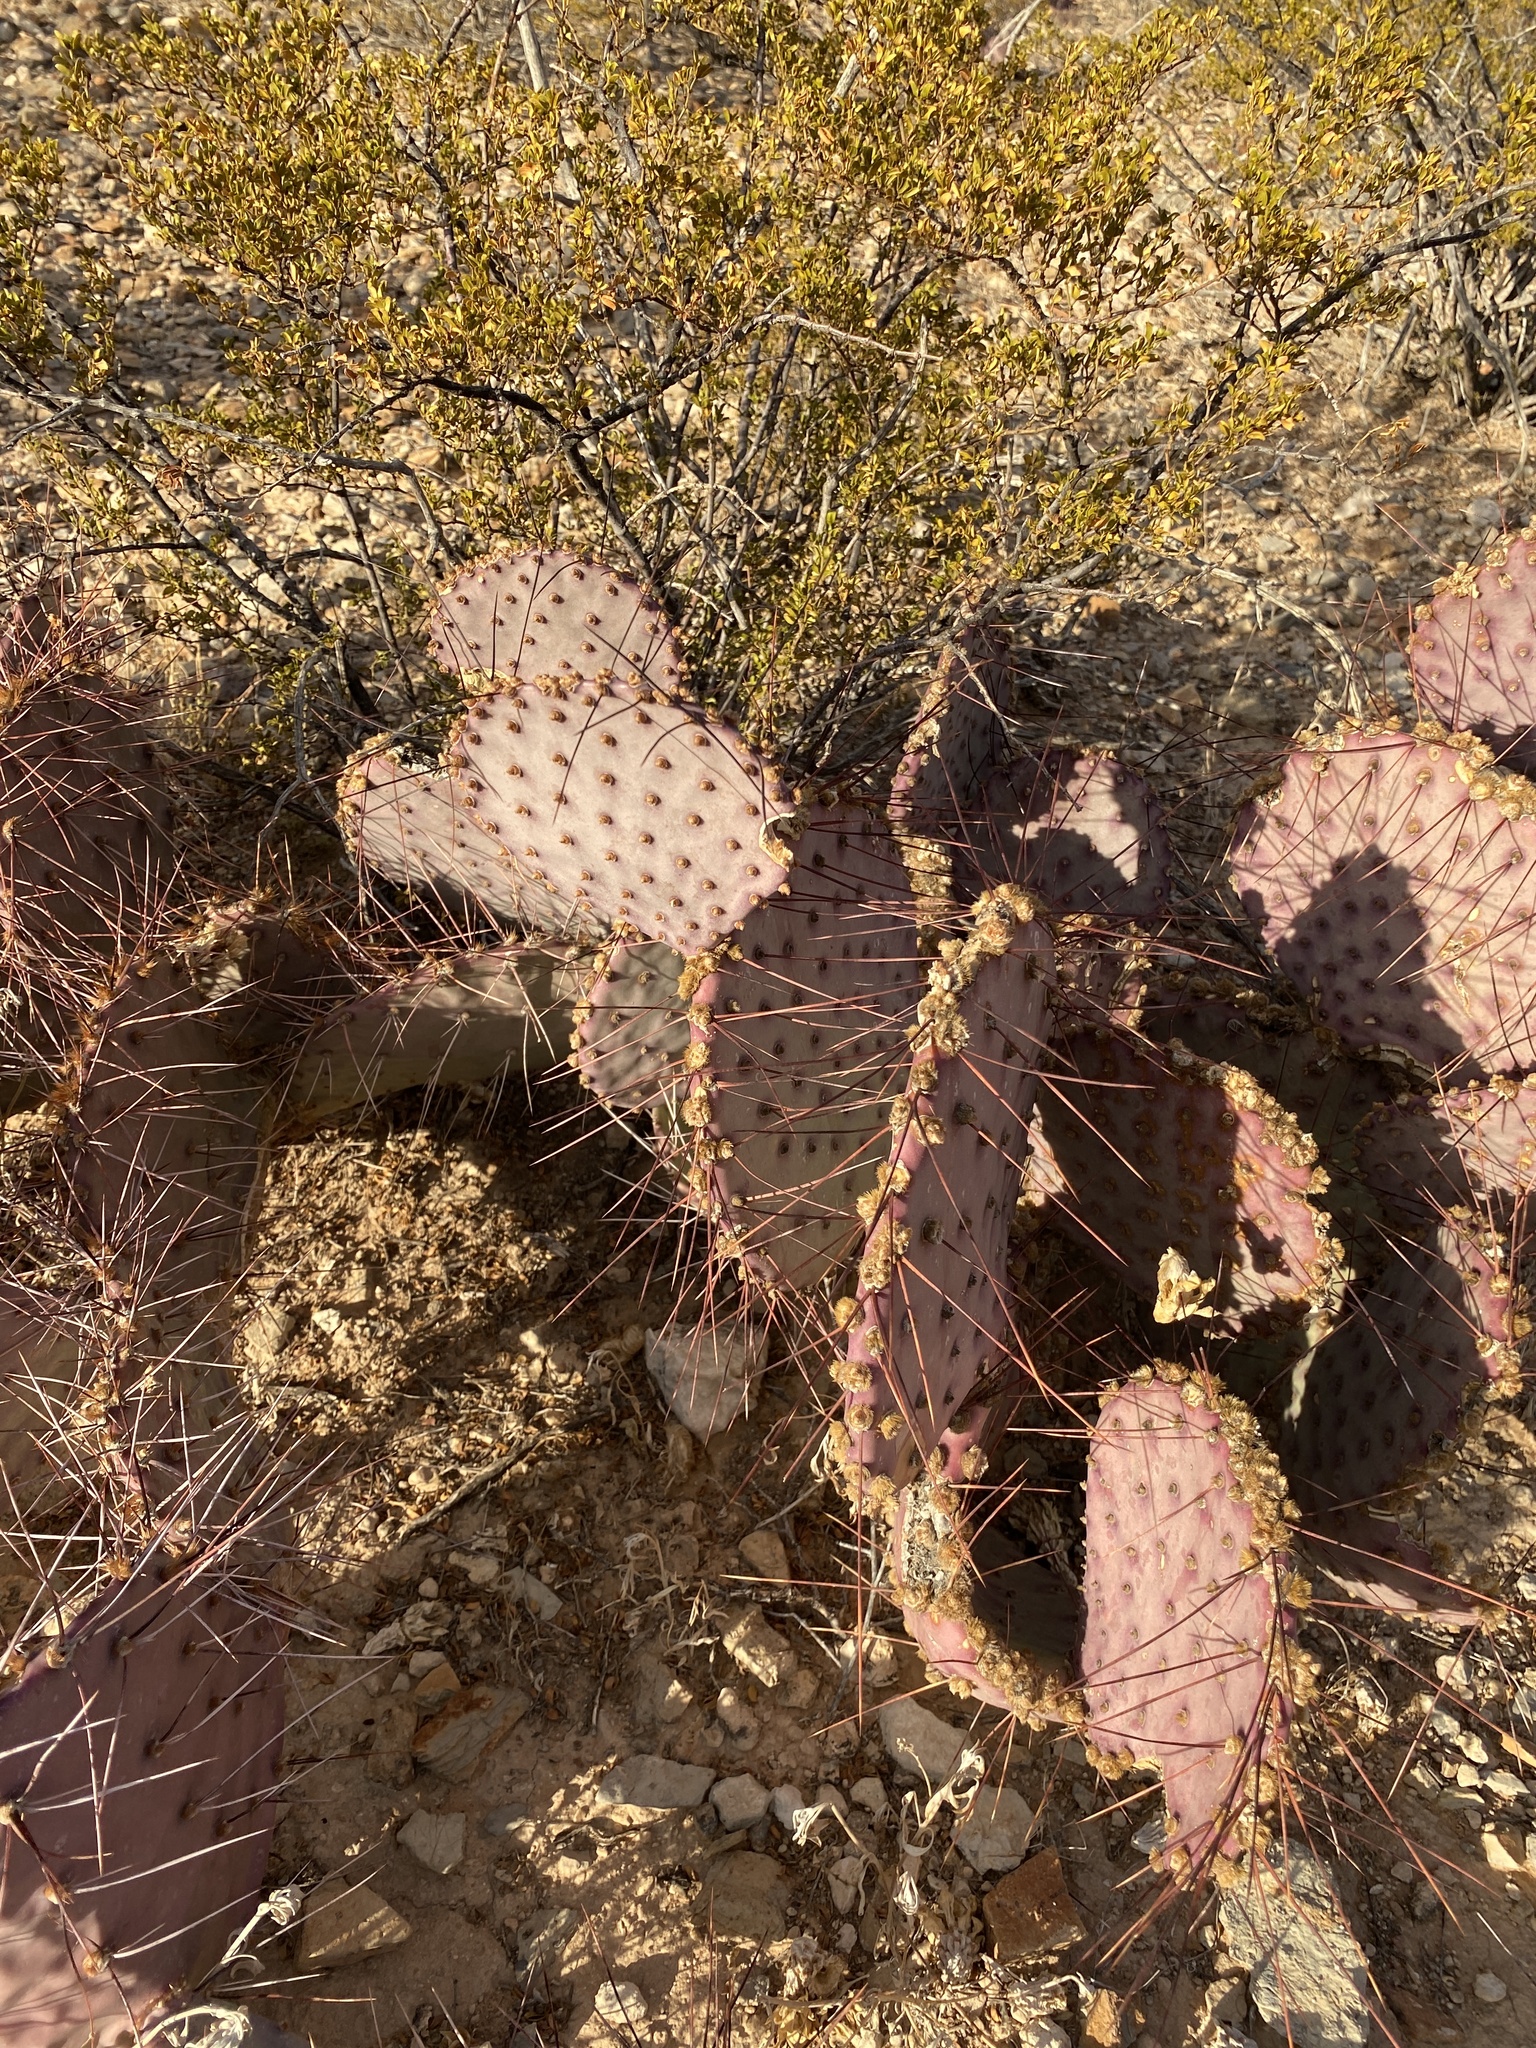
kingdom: Plantae
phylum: Tracheophyta
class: Magnoliopsida
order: Caryophyllales
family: Cactaceae
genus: Opuntia
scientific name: Opuntia macrocentra
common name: Purple prickly-pear
